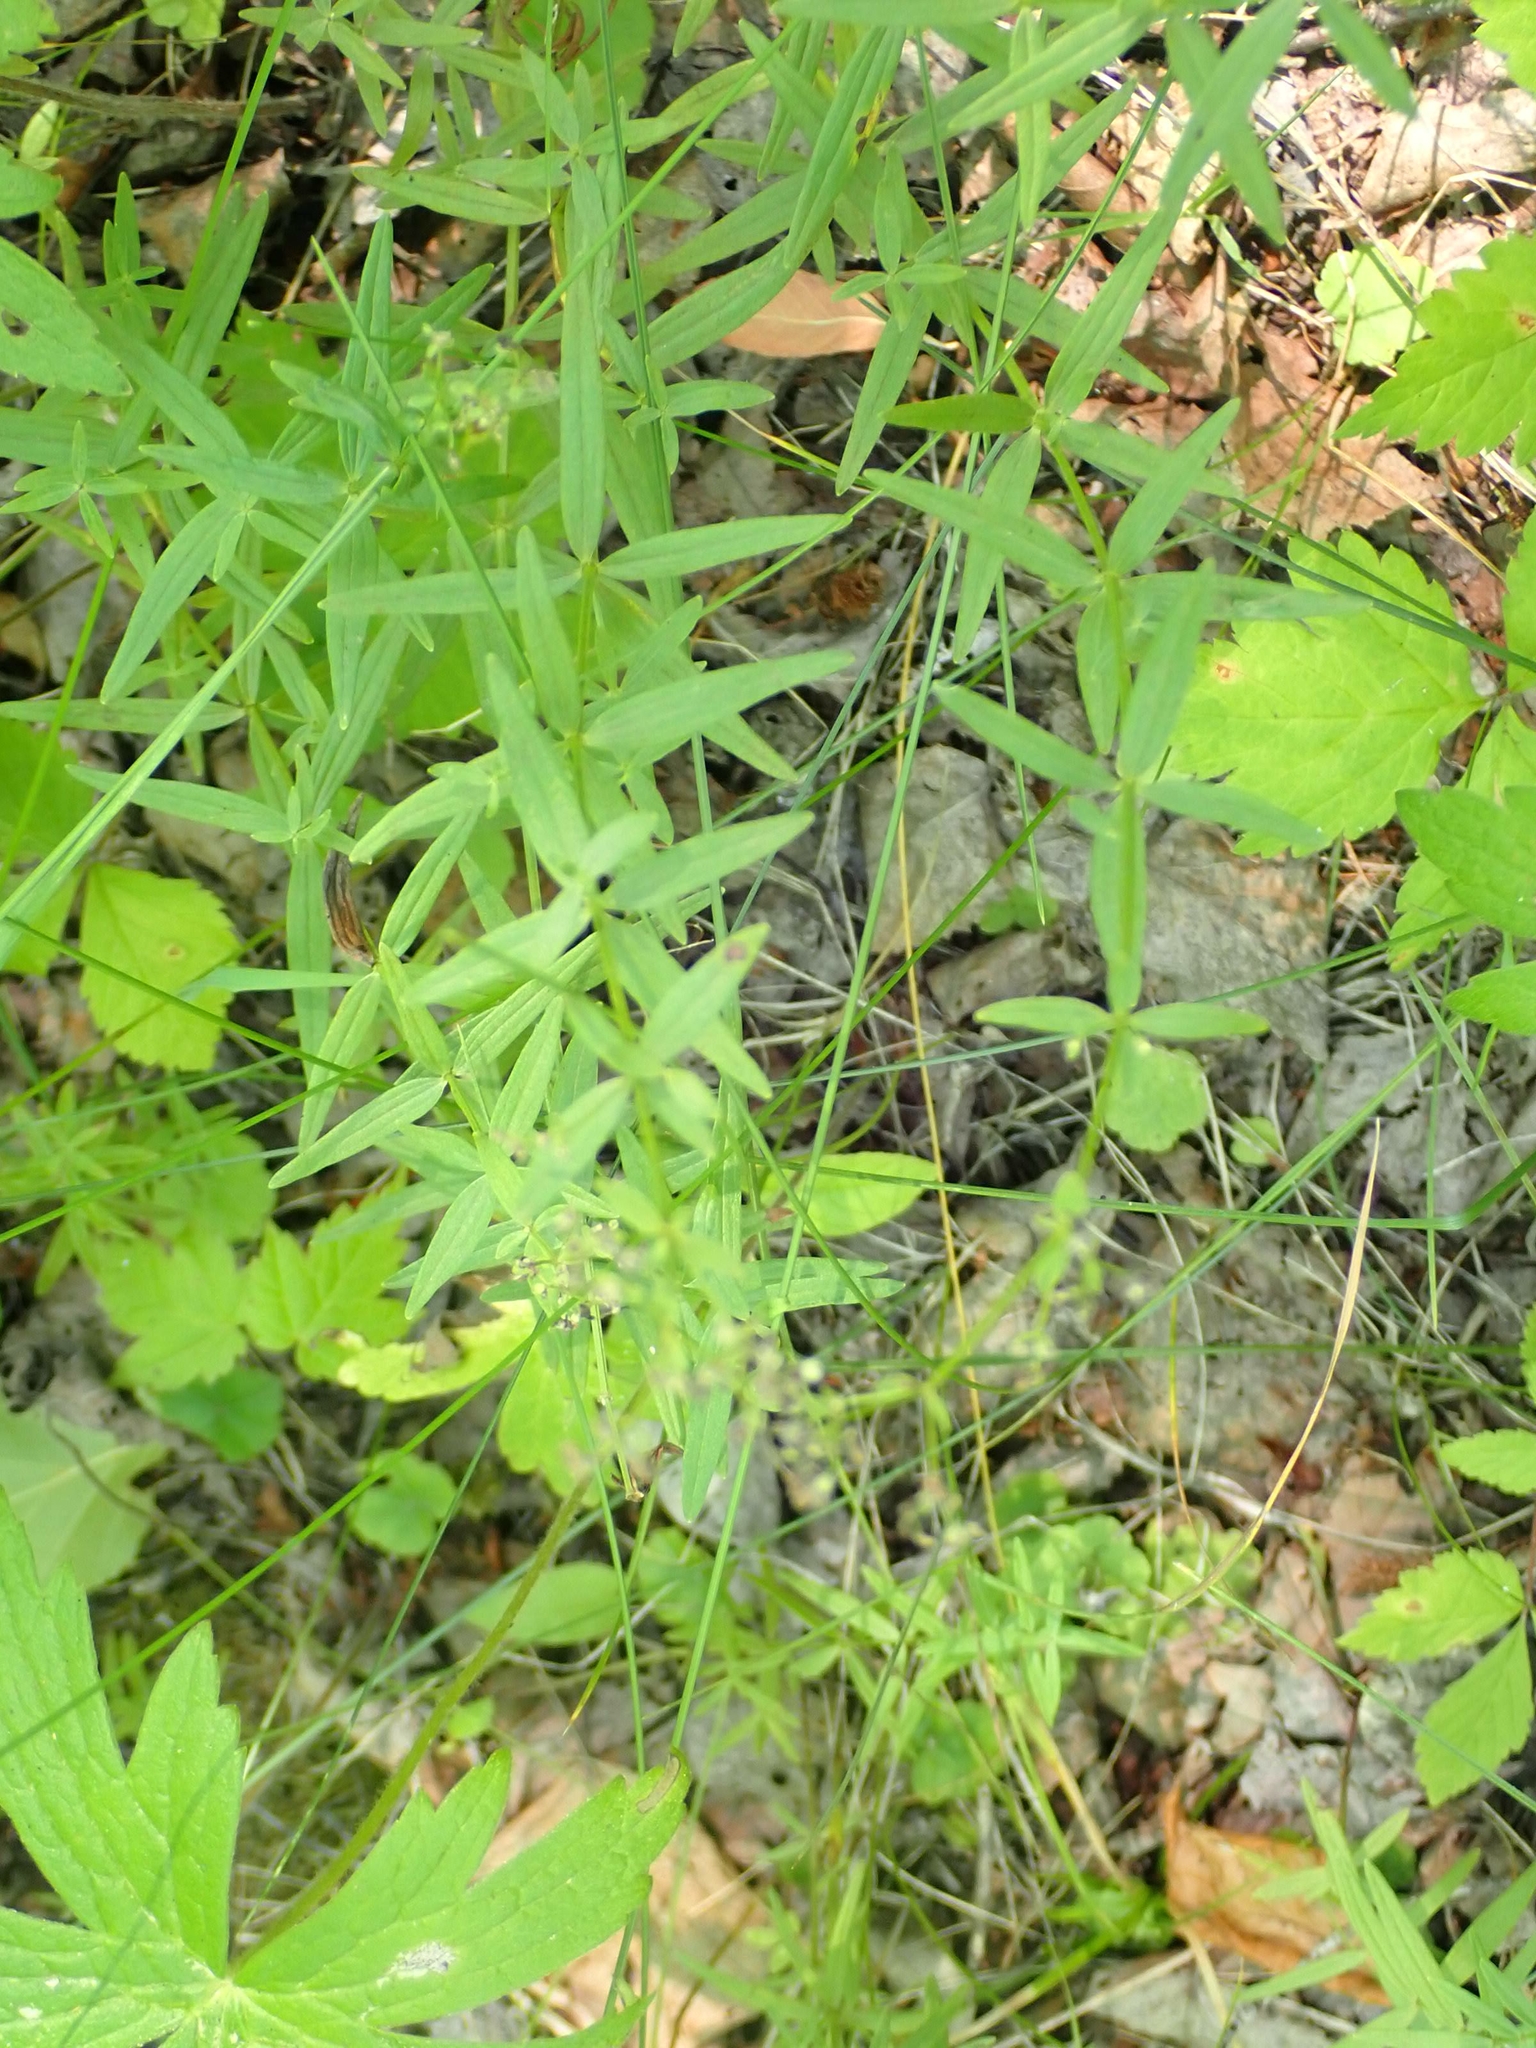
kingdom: Plantae
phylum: Tracheophyta
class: Magnoliopsida
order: Gentianales
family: Rubiaceae
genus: Galium
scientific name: Galium boreale
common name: Northern bedstraw
